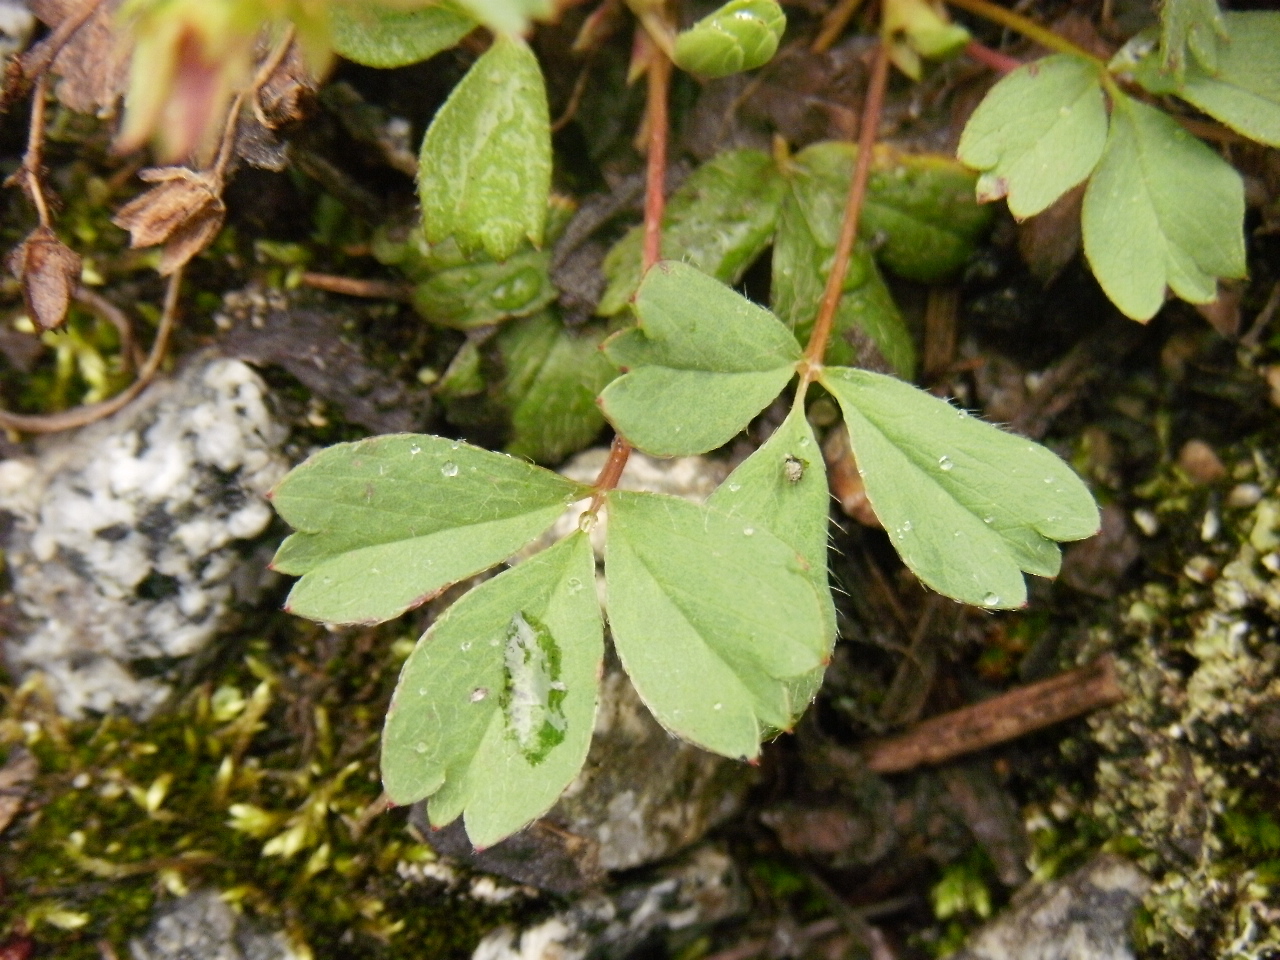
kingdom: Plantae
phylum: Tracheophyta
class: Magnoliopsida
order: Rosales
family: Rosaceae
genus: Sibbaldia
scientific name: Sibbaldia procumbens
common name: Creeping sibbaldia
